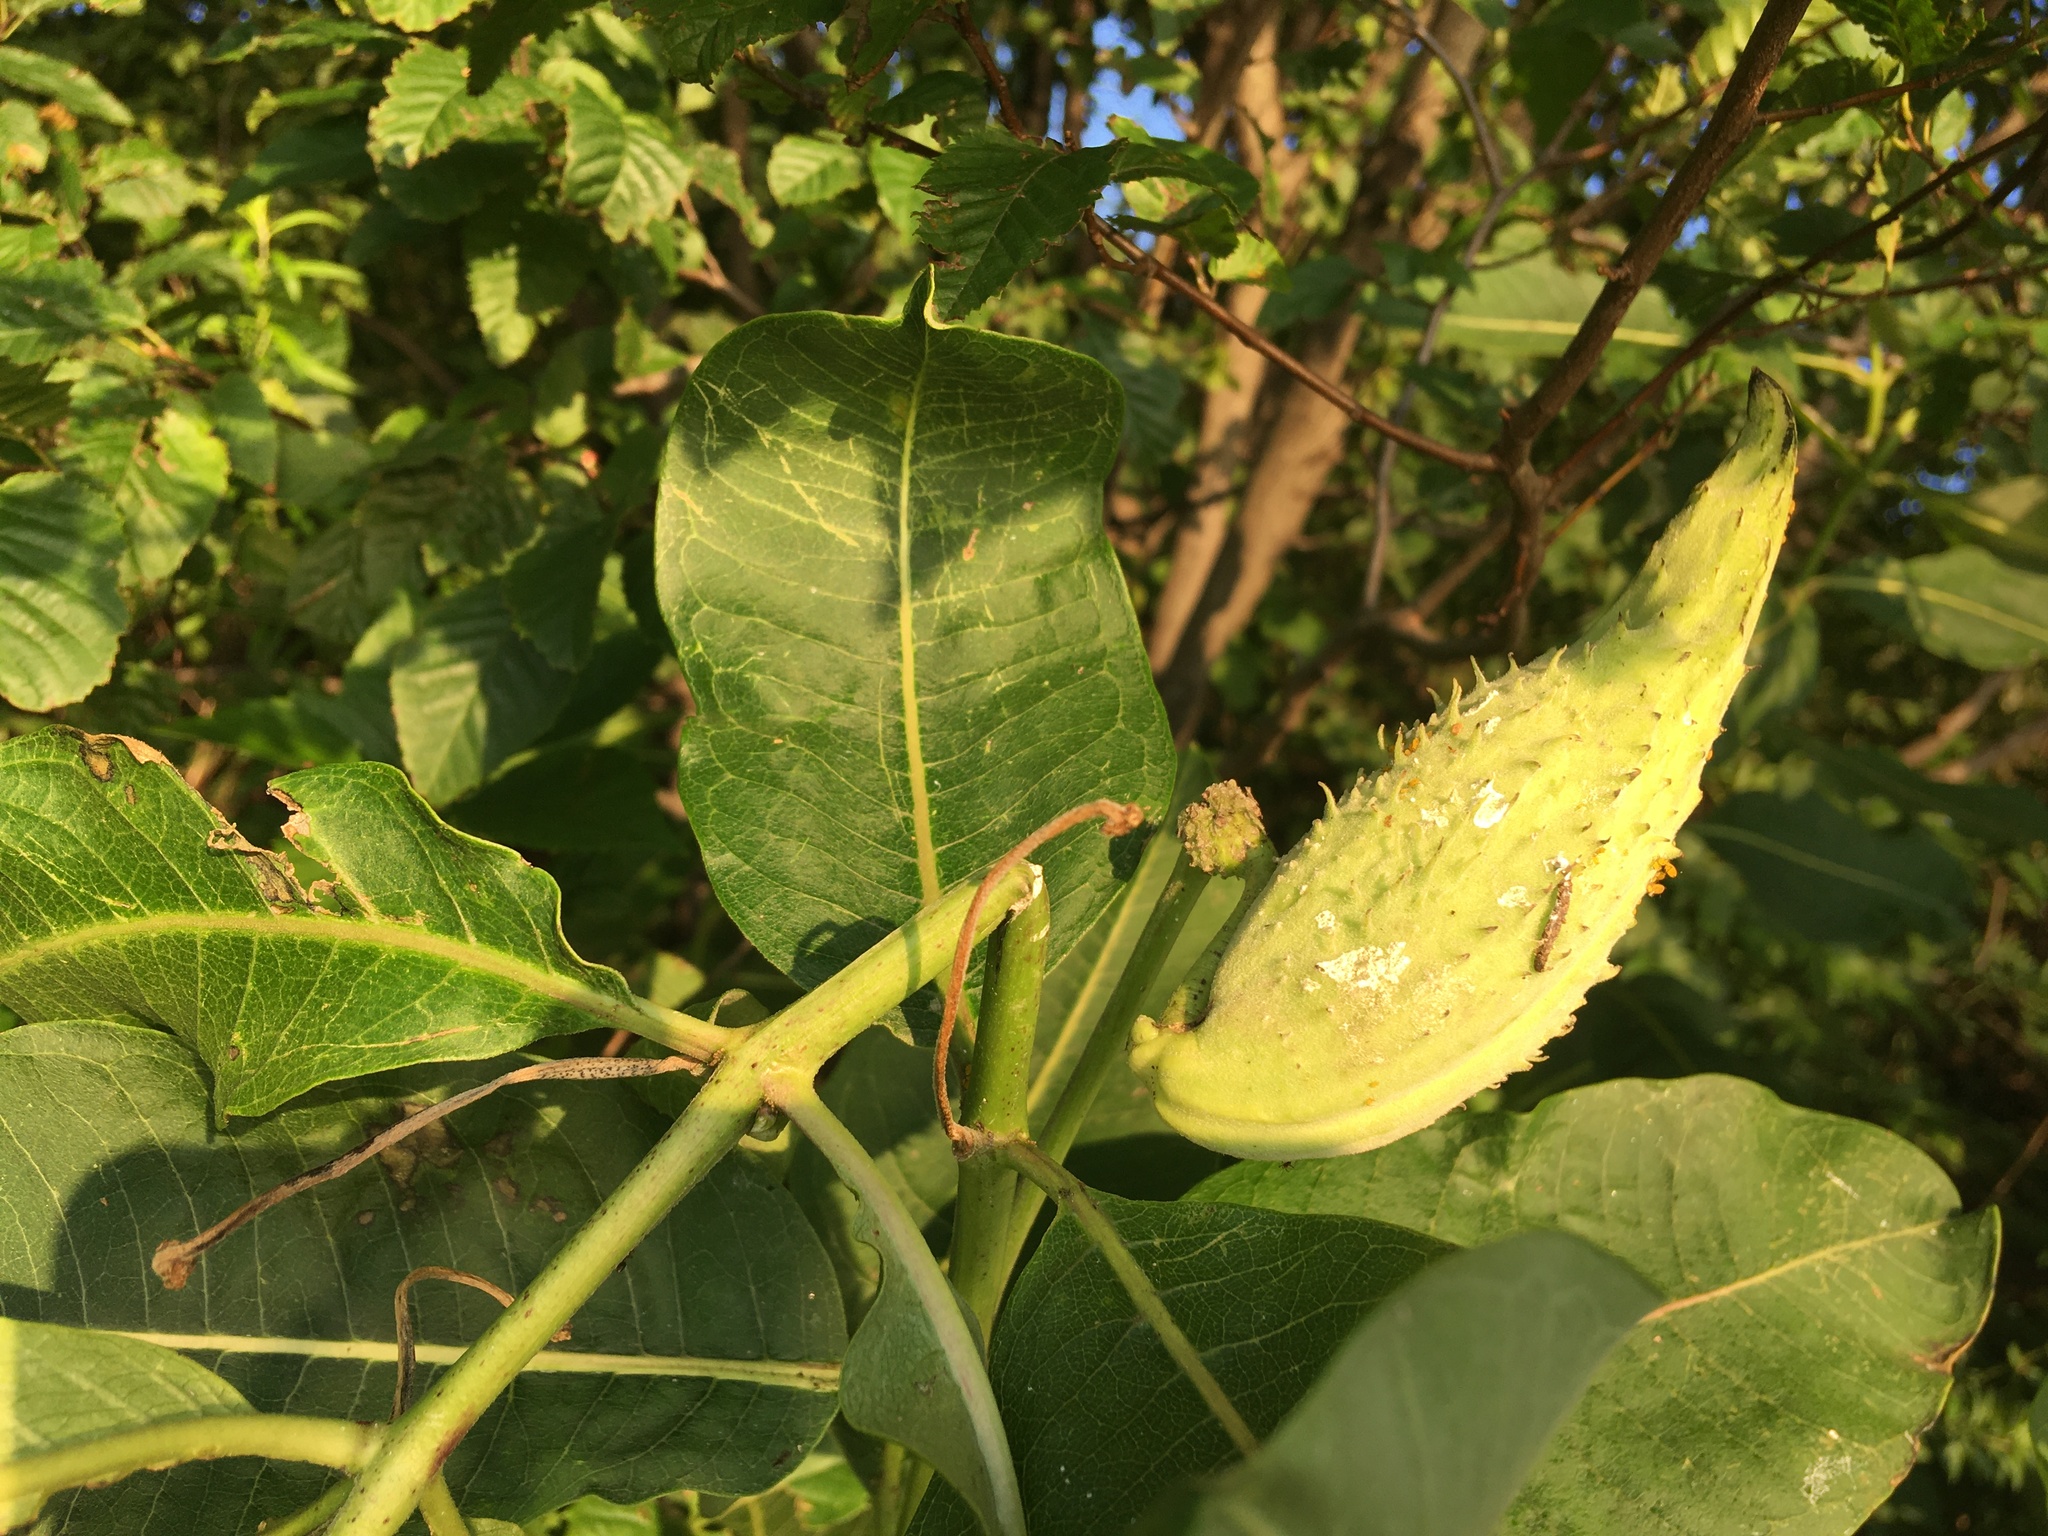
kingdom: Plantae
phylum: Tracheophyta
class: Magnoliopsida
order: Gentianales
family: Apocynaceae
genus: Asclepias
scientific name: Asclepias syriaca
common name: Common milkweed
